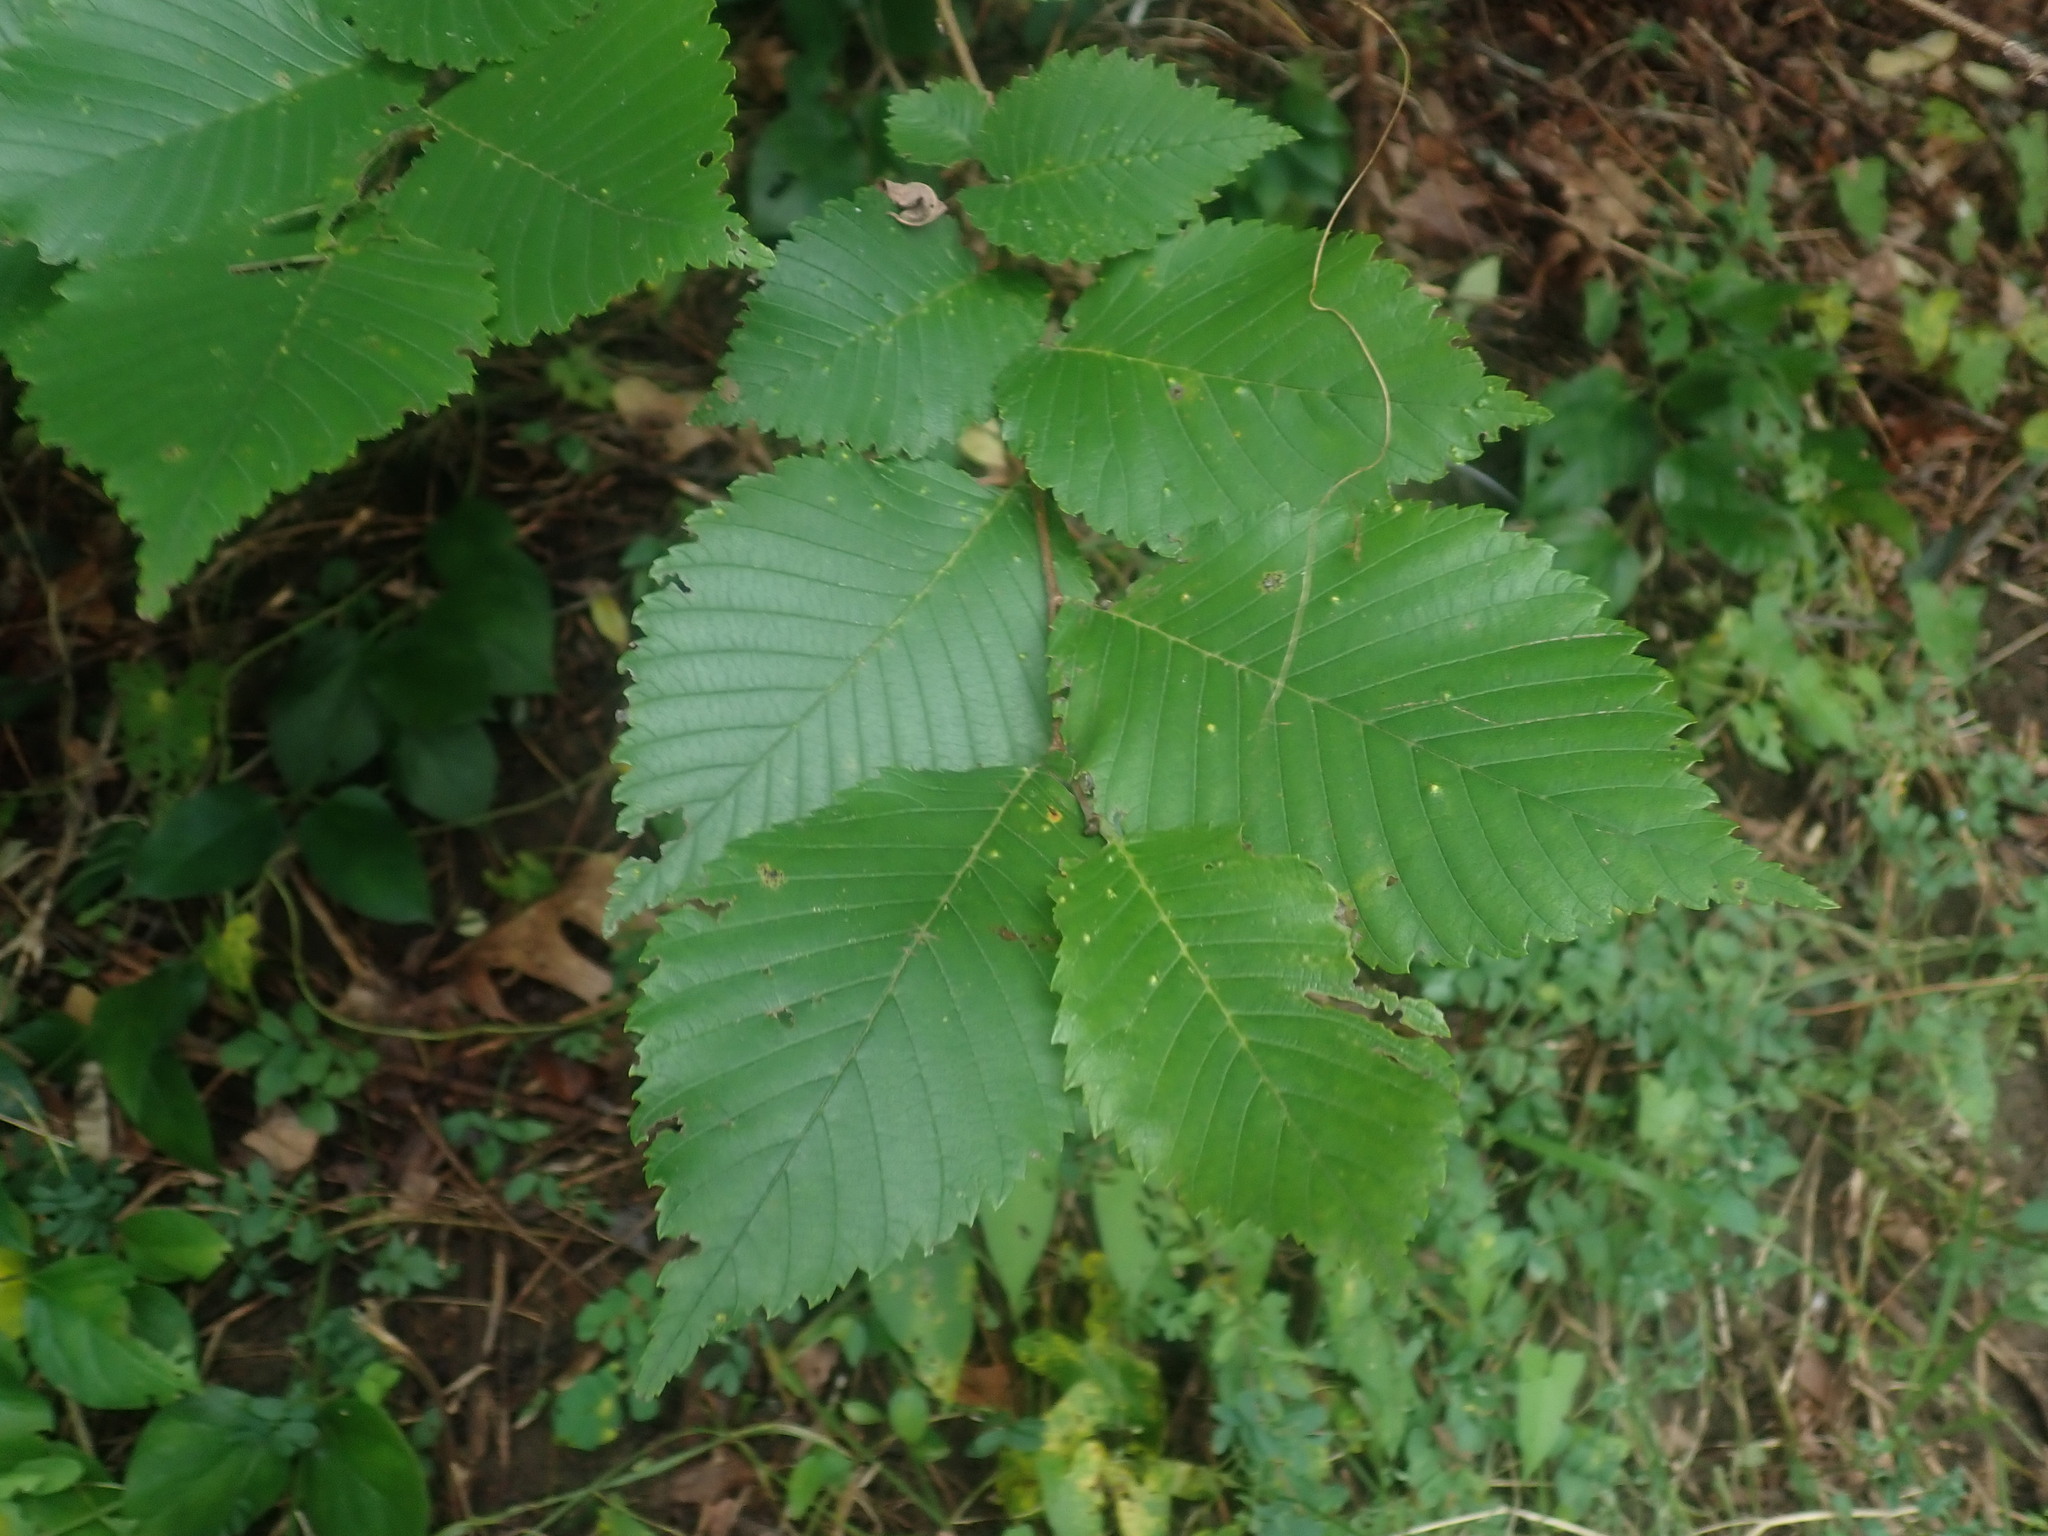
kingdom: Plantae
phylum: Tracheophyta
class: Magnoliopsida
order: Rosales
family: Ulmaceae
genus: Ulmus
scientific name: Ulmus americana
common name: American elm
